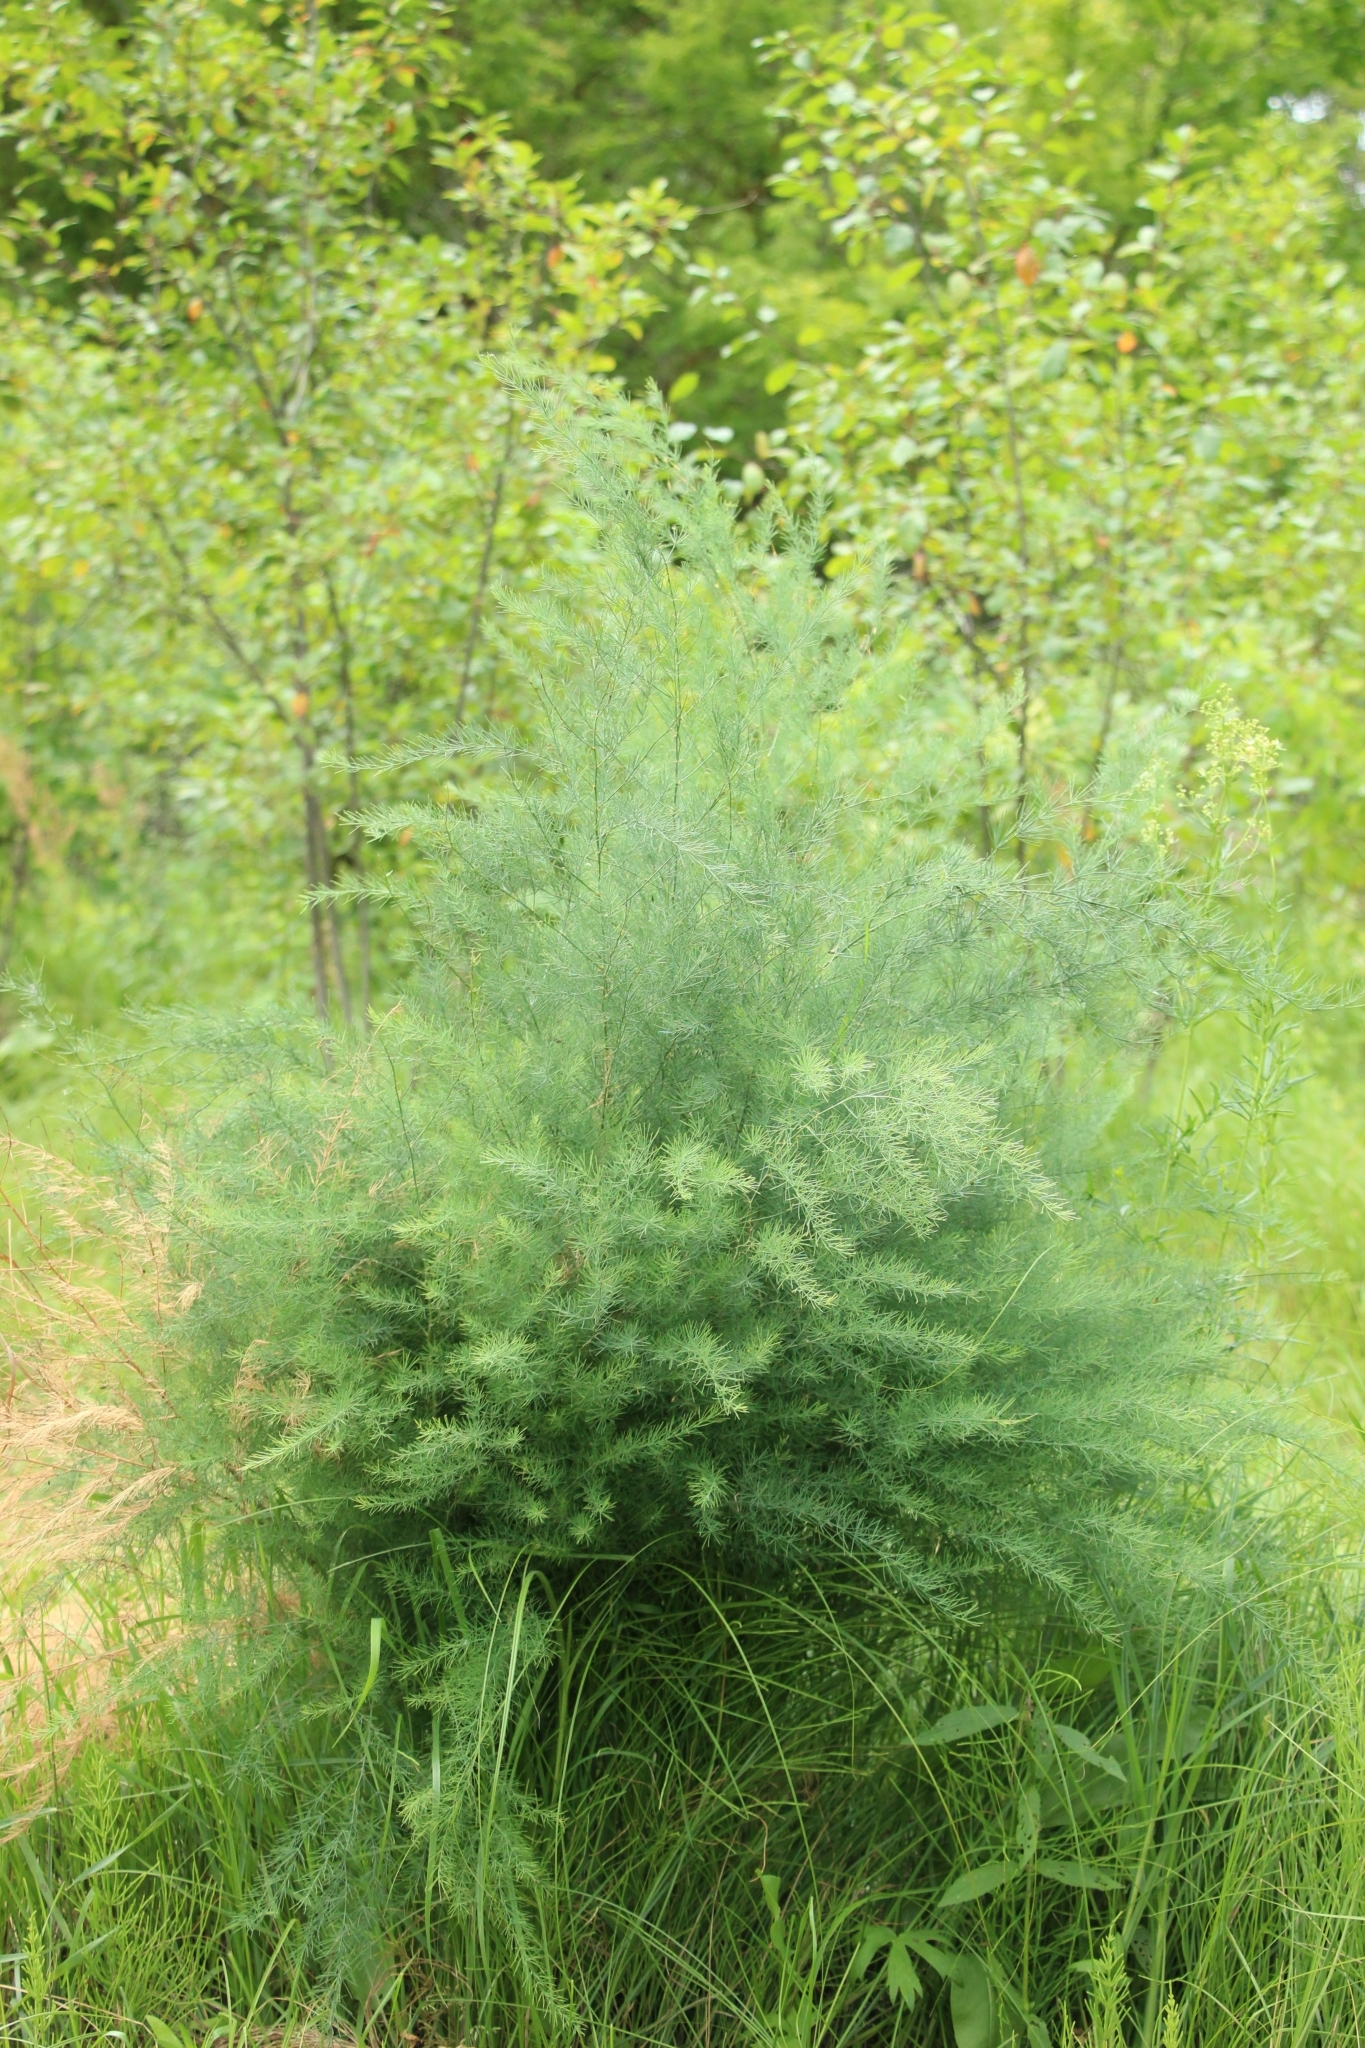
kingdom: Plantae
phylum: Tracheophyta
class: Liliopsida
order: Asparagales
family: Asparagaceae
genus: Asparagus
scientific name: Asparagus officinalis
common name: Garden asparagus
